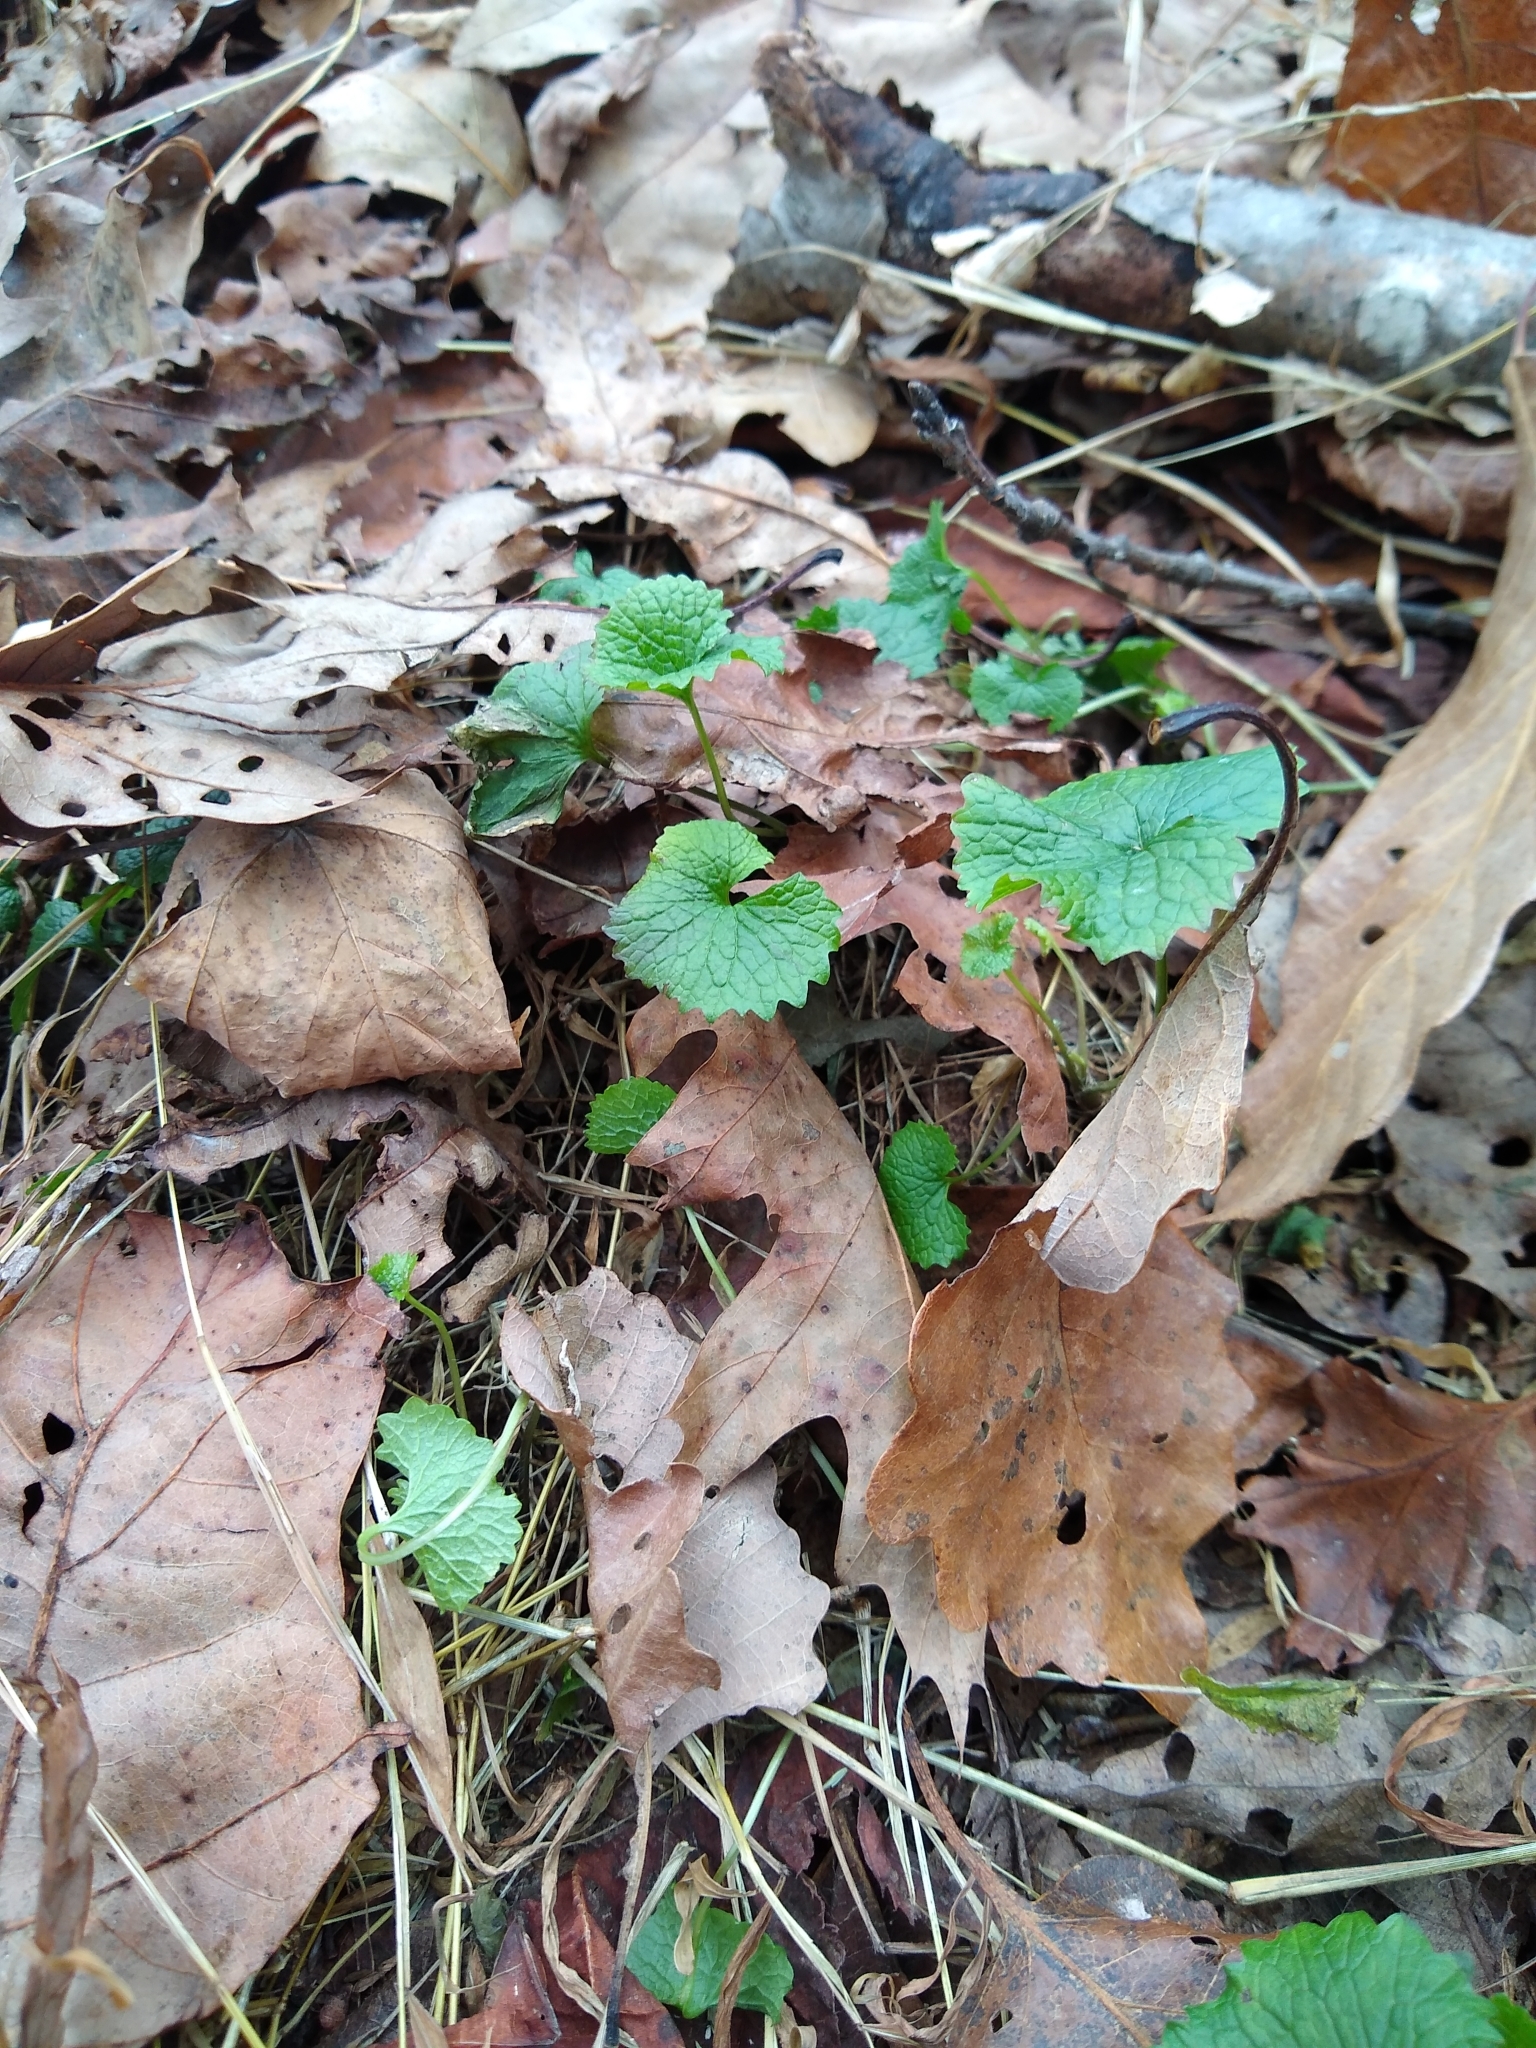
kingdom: Plantae
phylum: Tracheophyta
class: Magnoliopsida
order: Brassicales
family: Brassicaceae
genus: Alliaria
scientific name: Alliaria petiolata
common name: Garlic mustard
